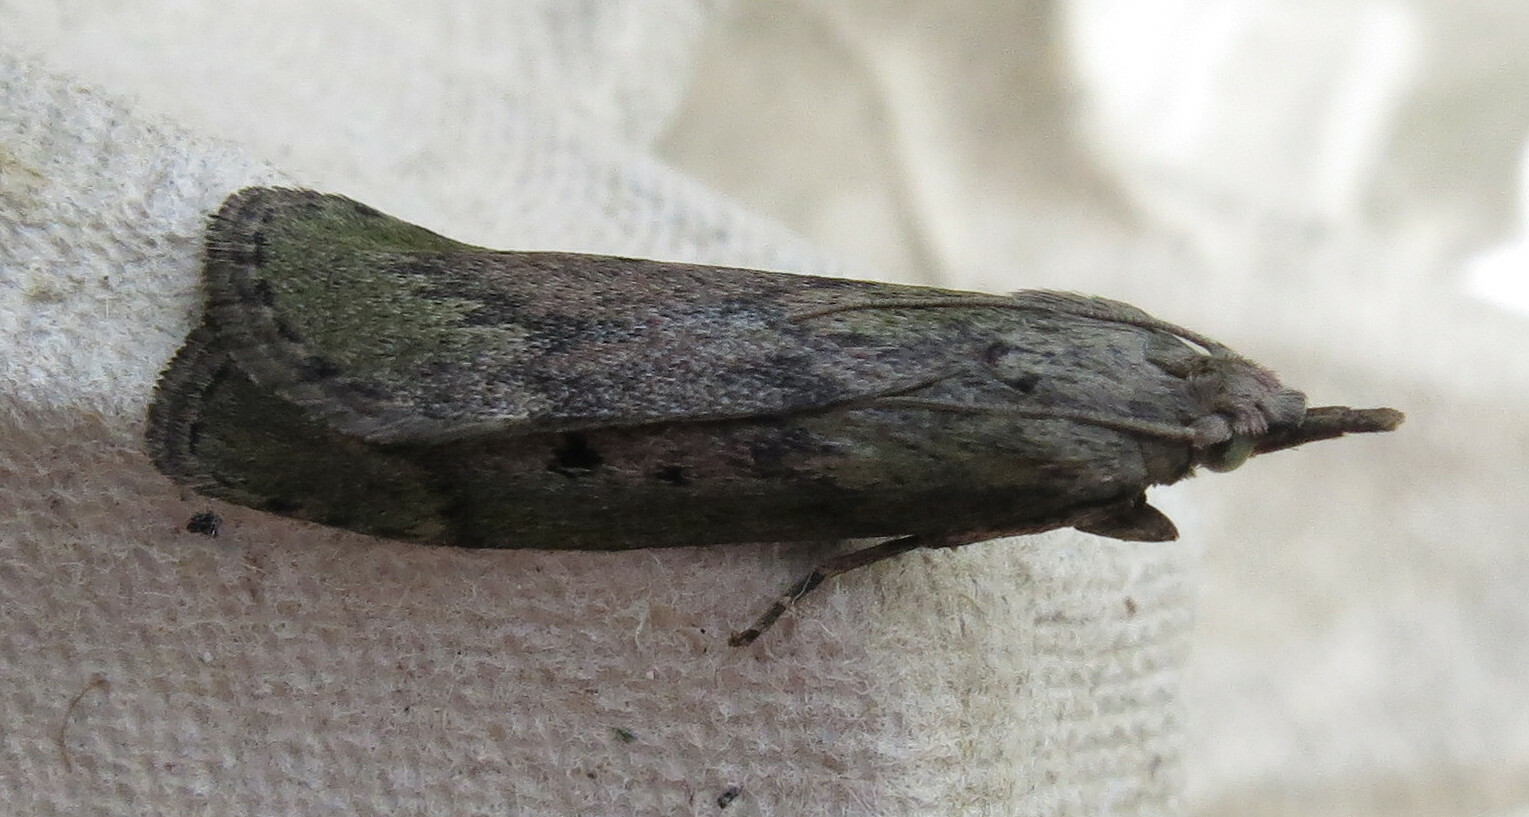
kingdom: Animalia
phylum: Arthropoda
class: Insecta
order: Lepidoptera
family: Pyralidae
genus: Aphomia
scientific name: Aphomia sociella
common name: Bee moth
